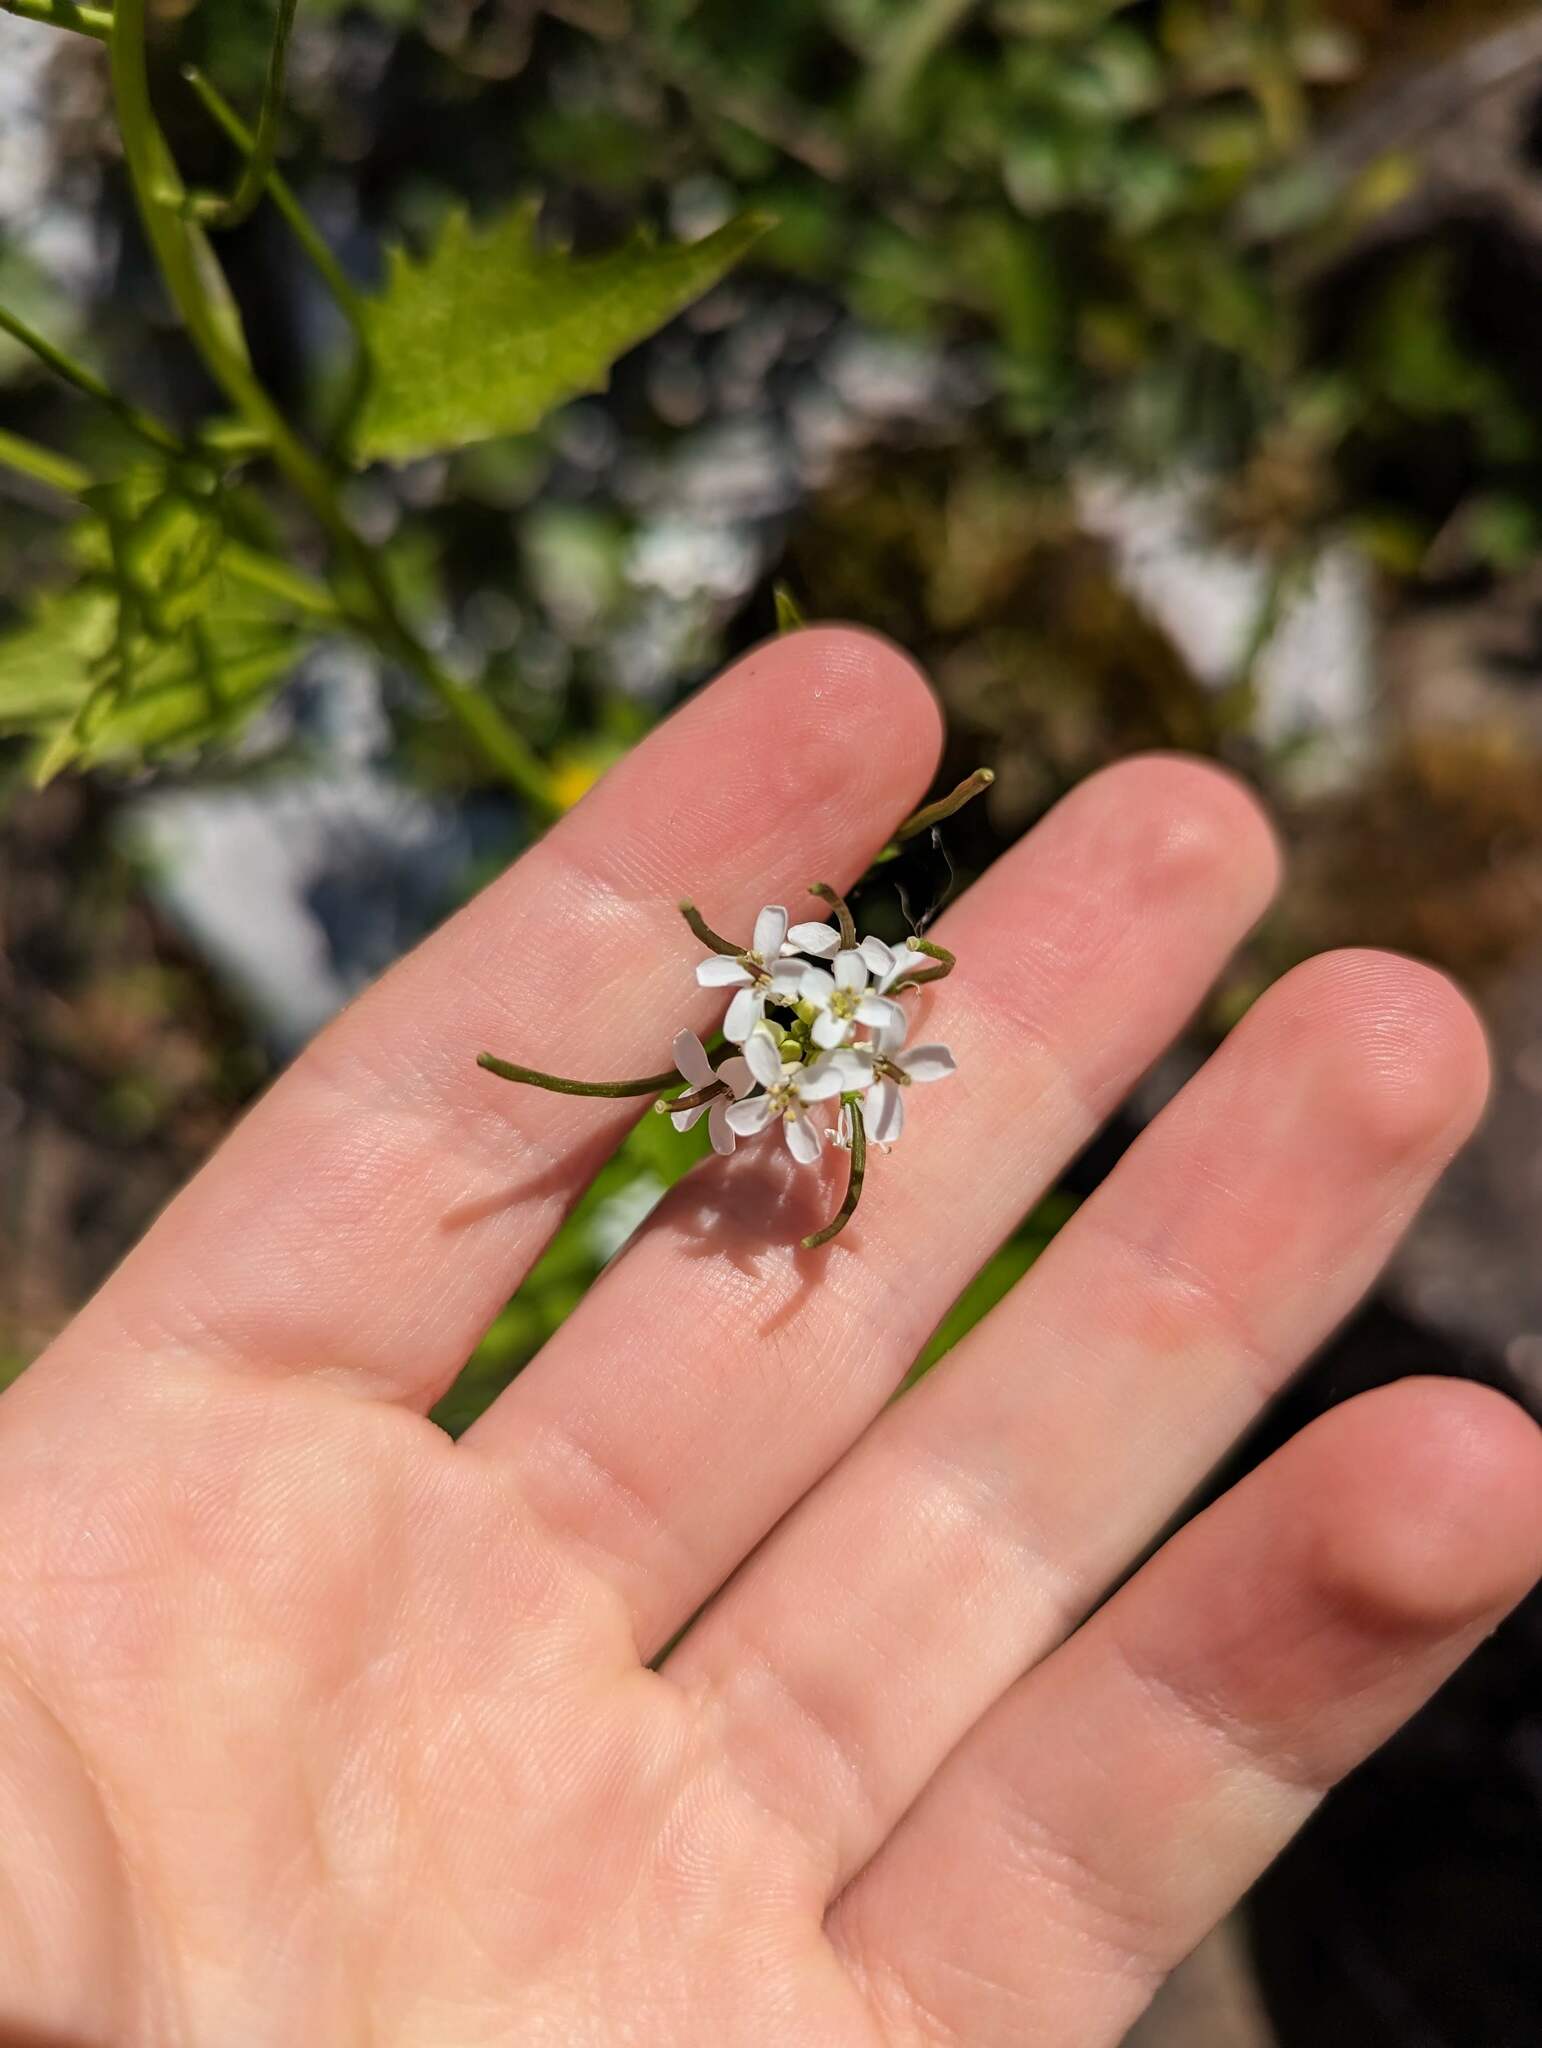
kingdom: Plantae
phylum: Tracheophyta
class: Magnoliopsida
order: Brassicales
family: Brassicaceae
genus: Alliaria
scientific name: Alliaria petiolata
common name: Garlic mustard
